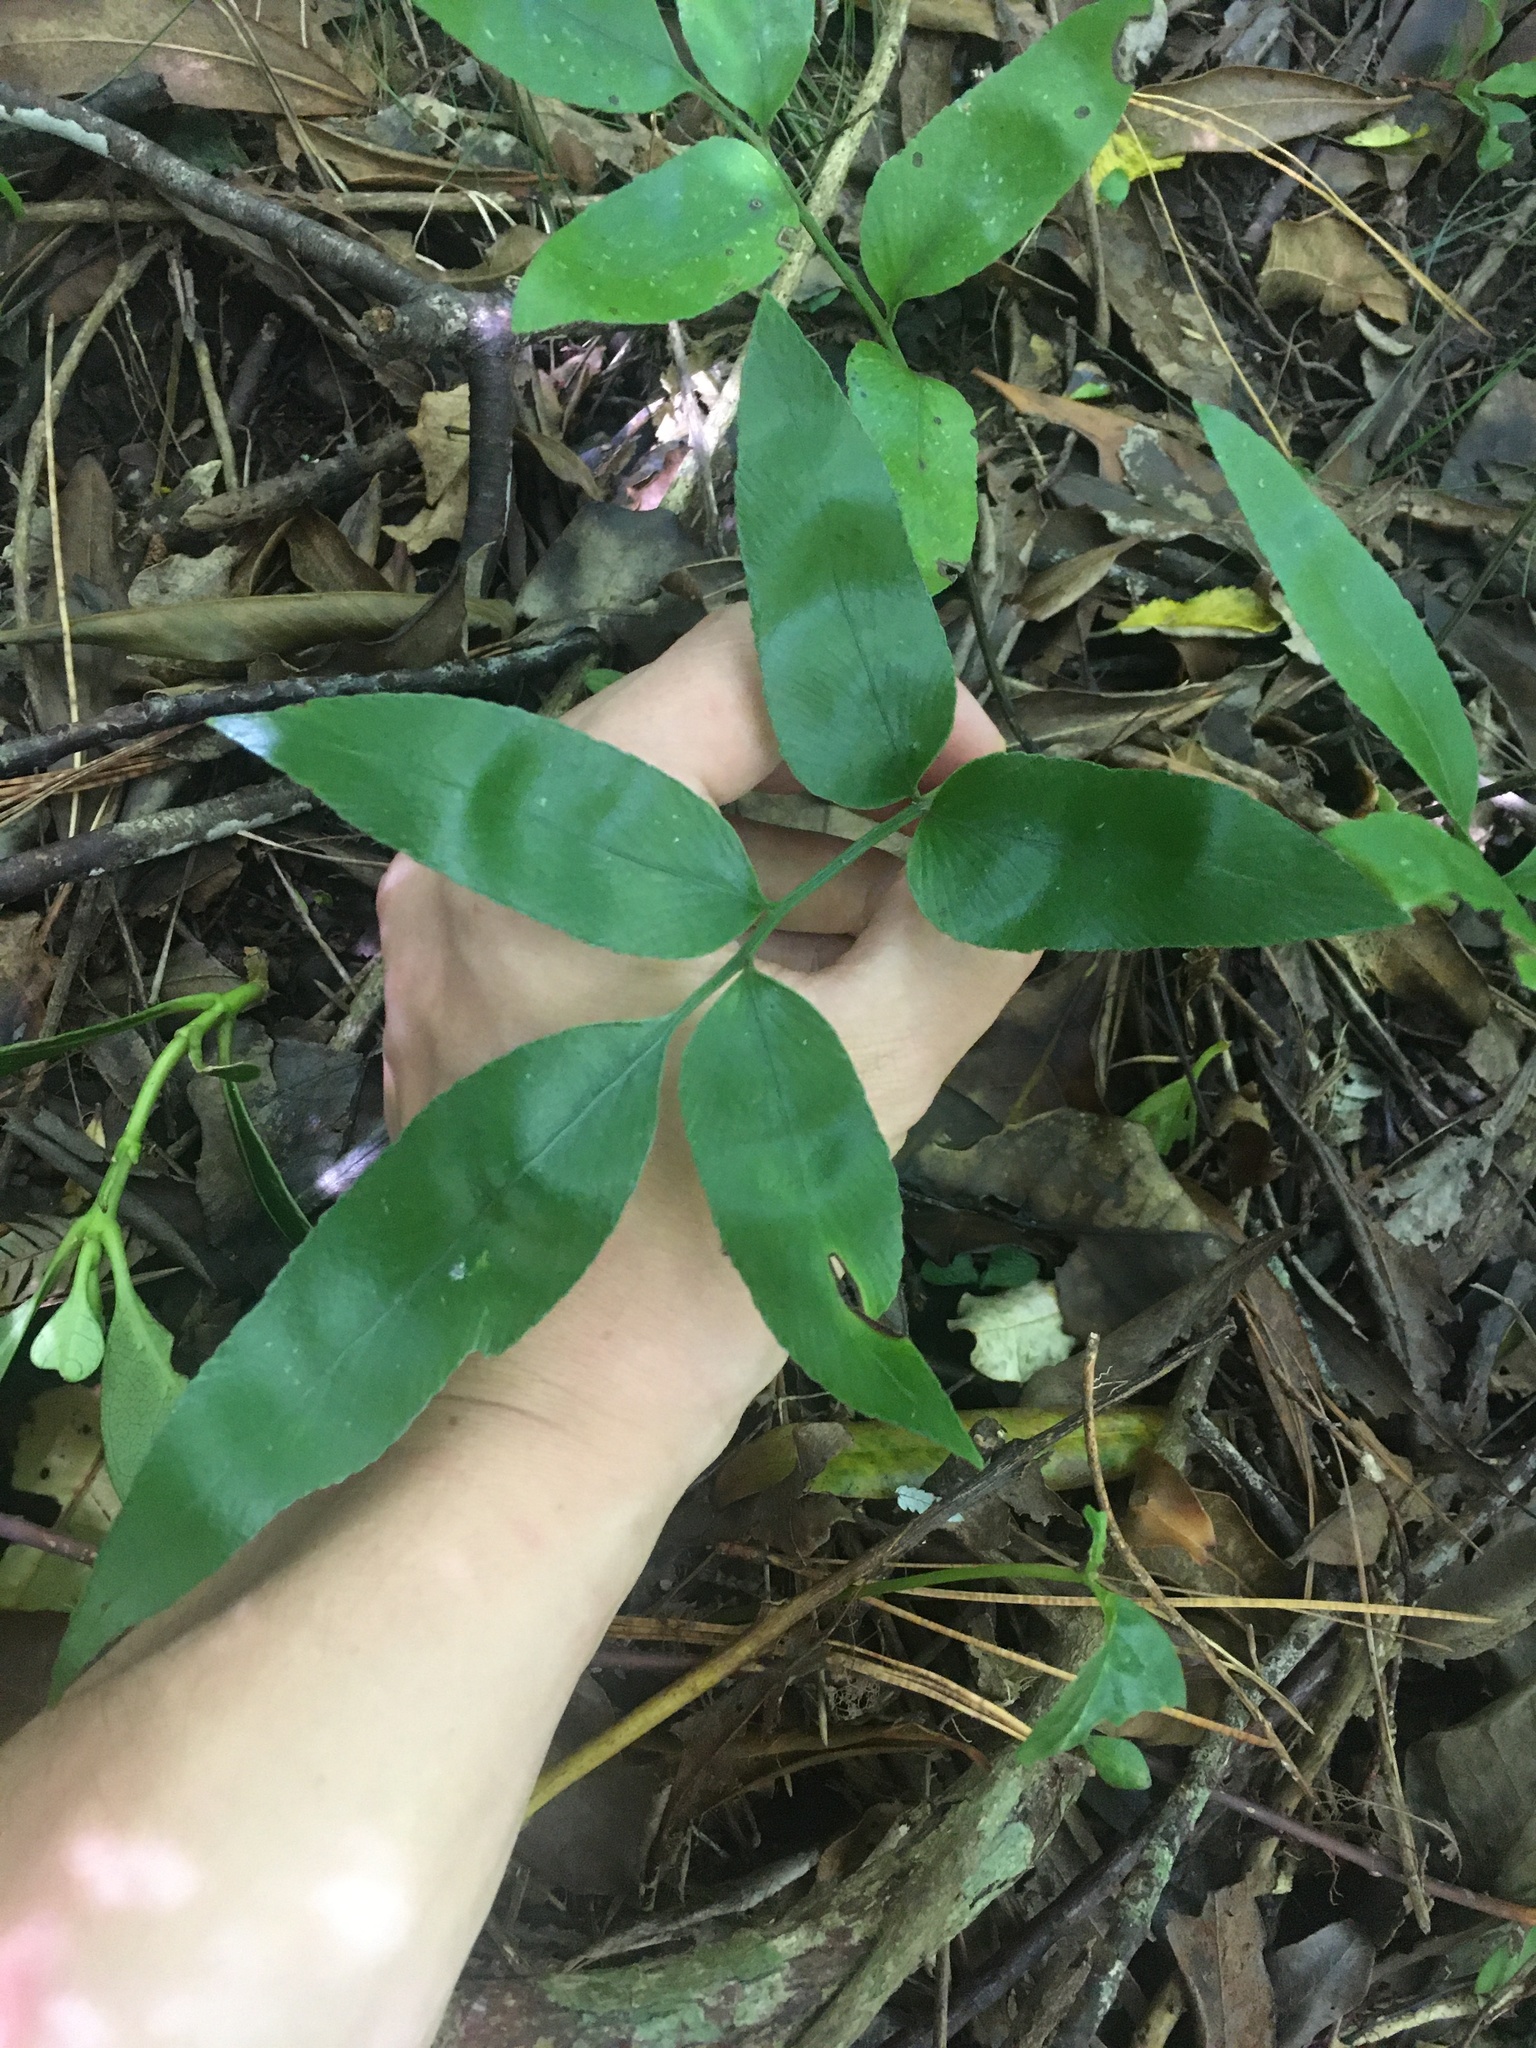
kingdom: Plantae
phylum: Tracheophyta
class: Polypodiopsida
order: Polypodiales
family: Aspleniaceae
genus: Asplenium
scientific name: Asplenium oblongifolium
